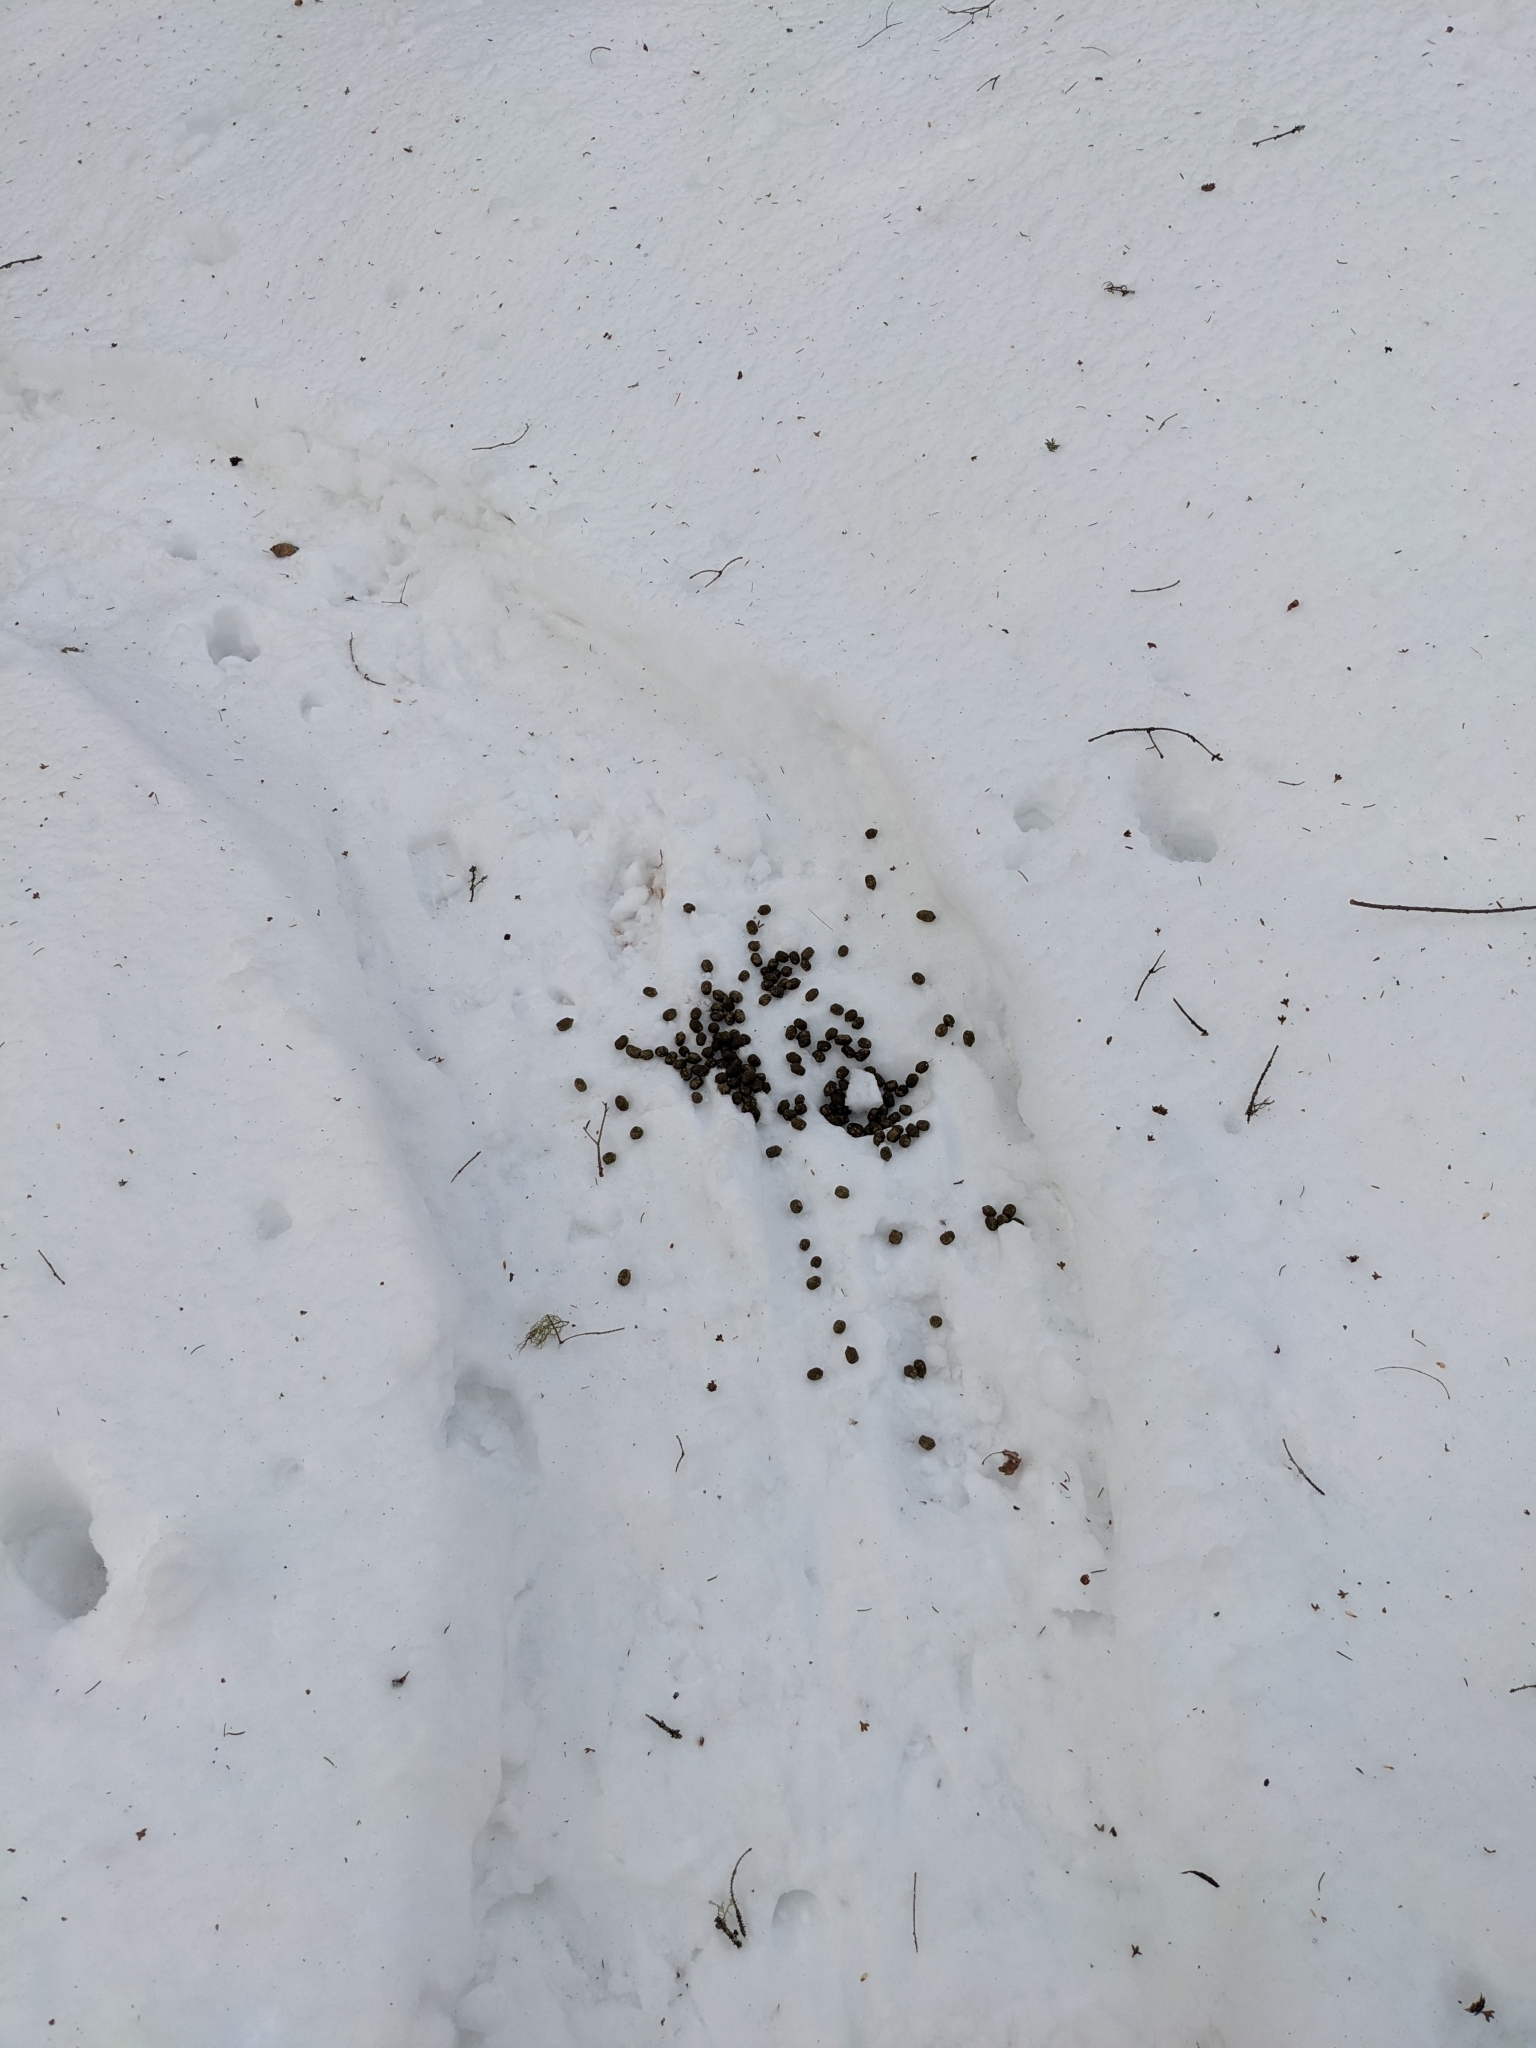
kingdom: Animalia
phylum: Chordata
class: Mammalia
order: Artiodactyla
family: Cervidae
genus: Odocoileus
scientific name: Odocoileus virginianus
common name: White-tailed deer
